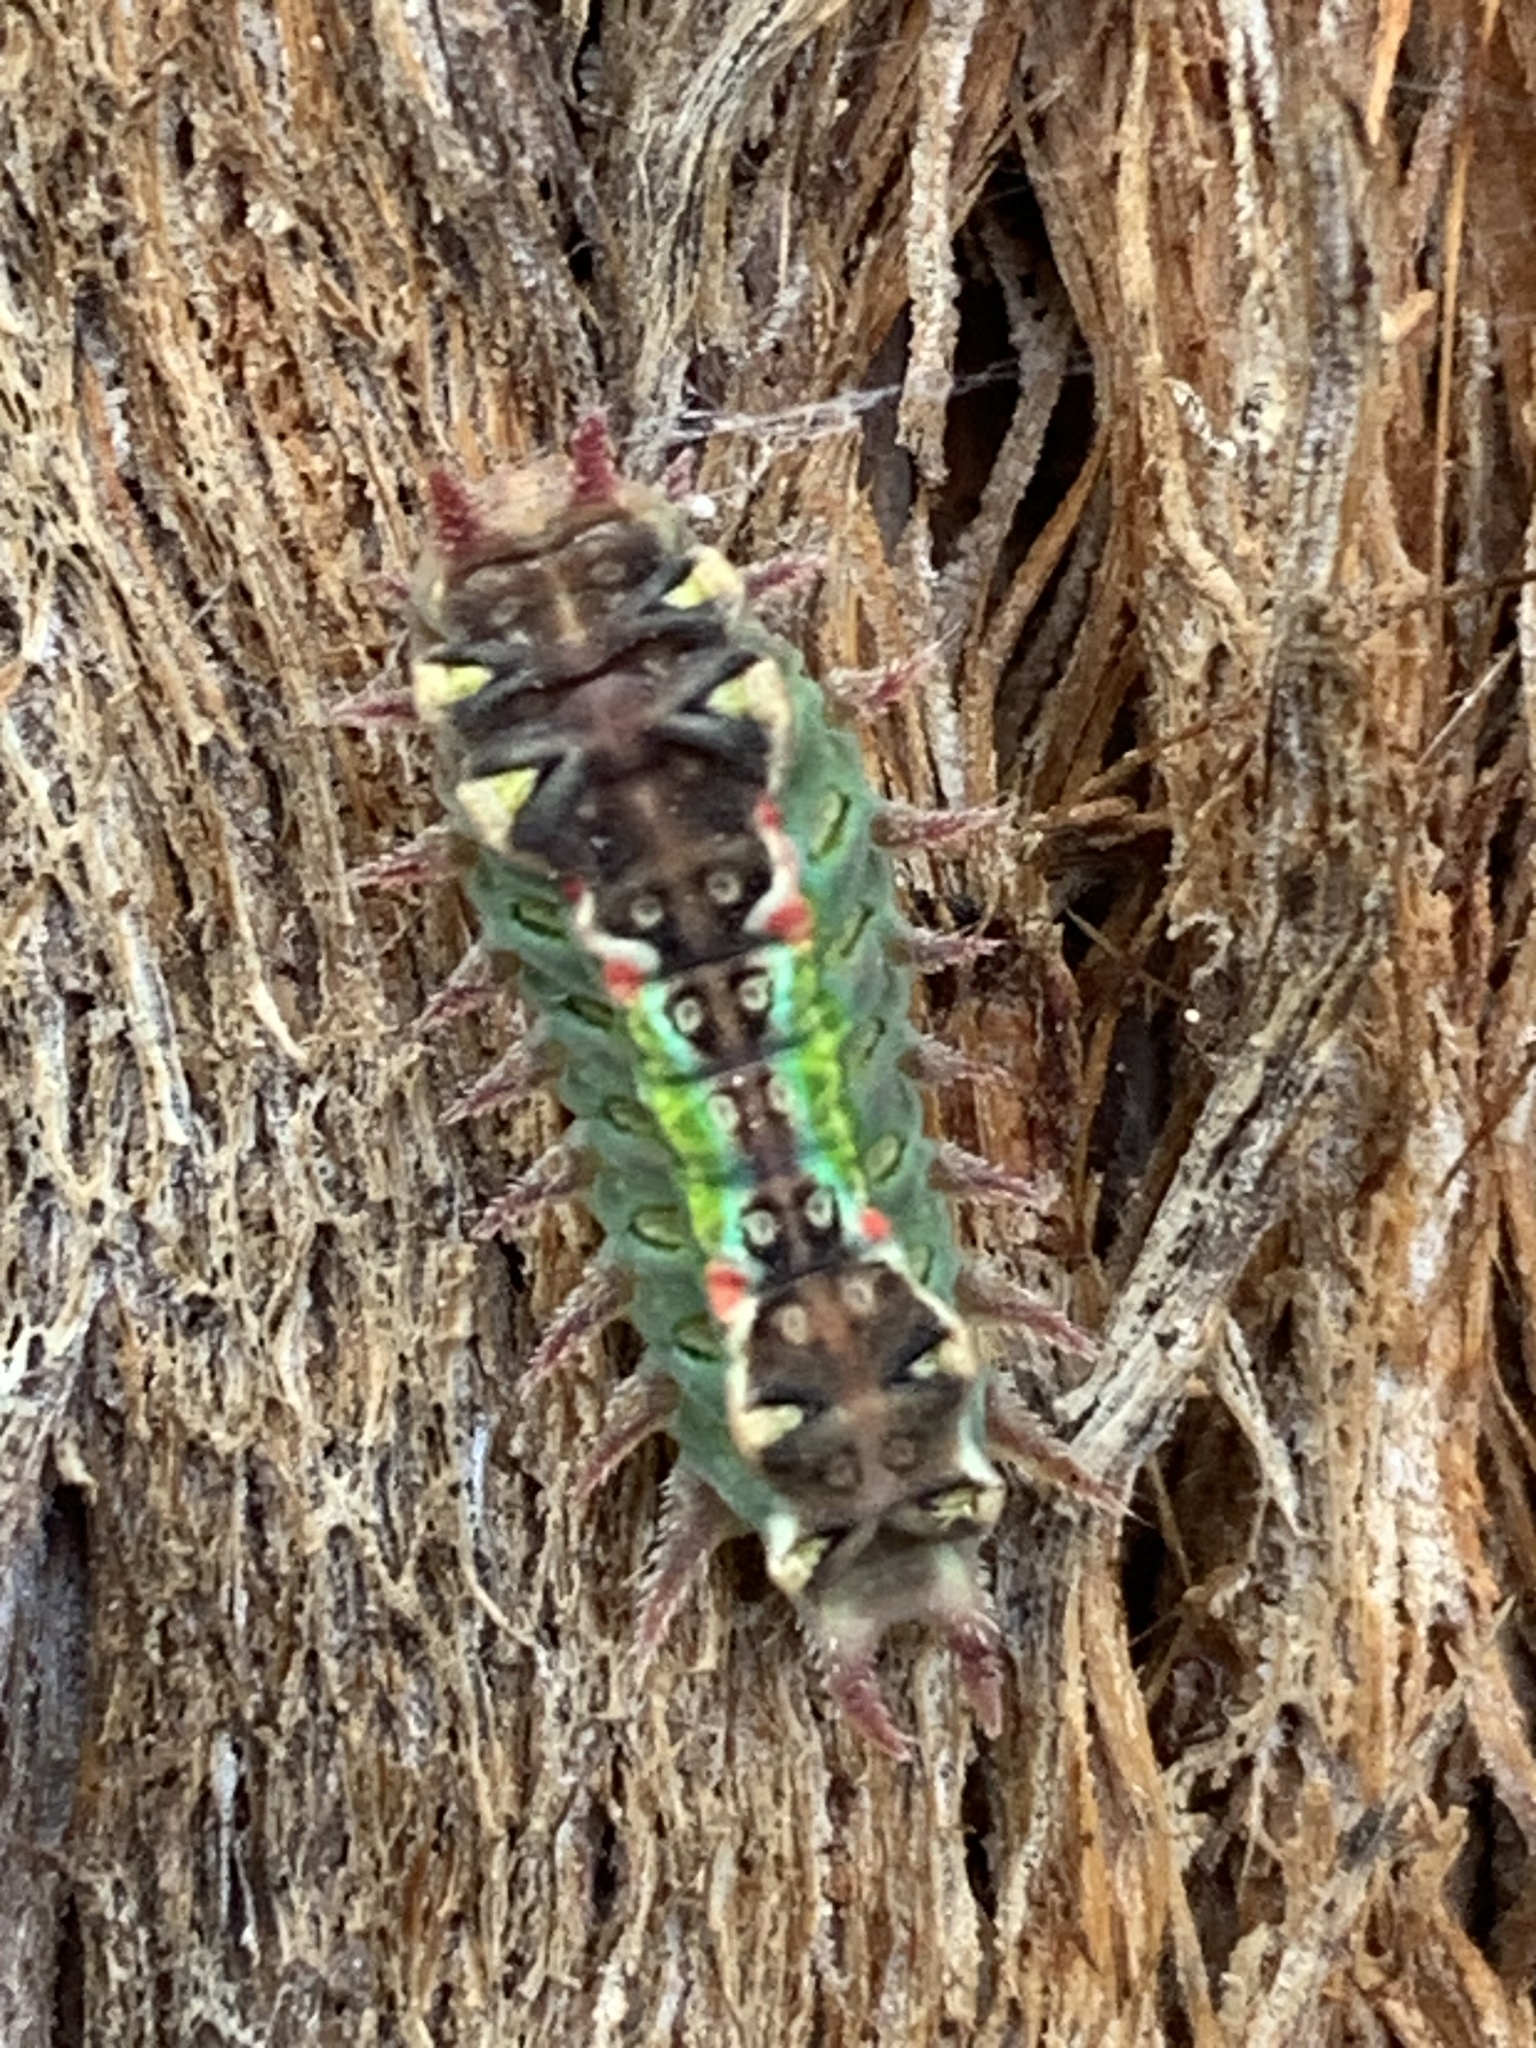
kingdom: Animalia
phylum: Arthropoda
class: Insecta
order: Lepidoptera
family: Limacodidae
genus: Doratifera
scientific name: Doratifera oxleyi
